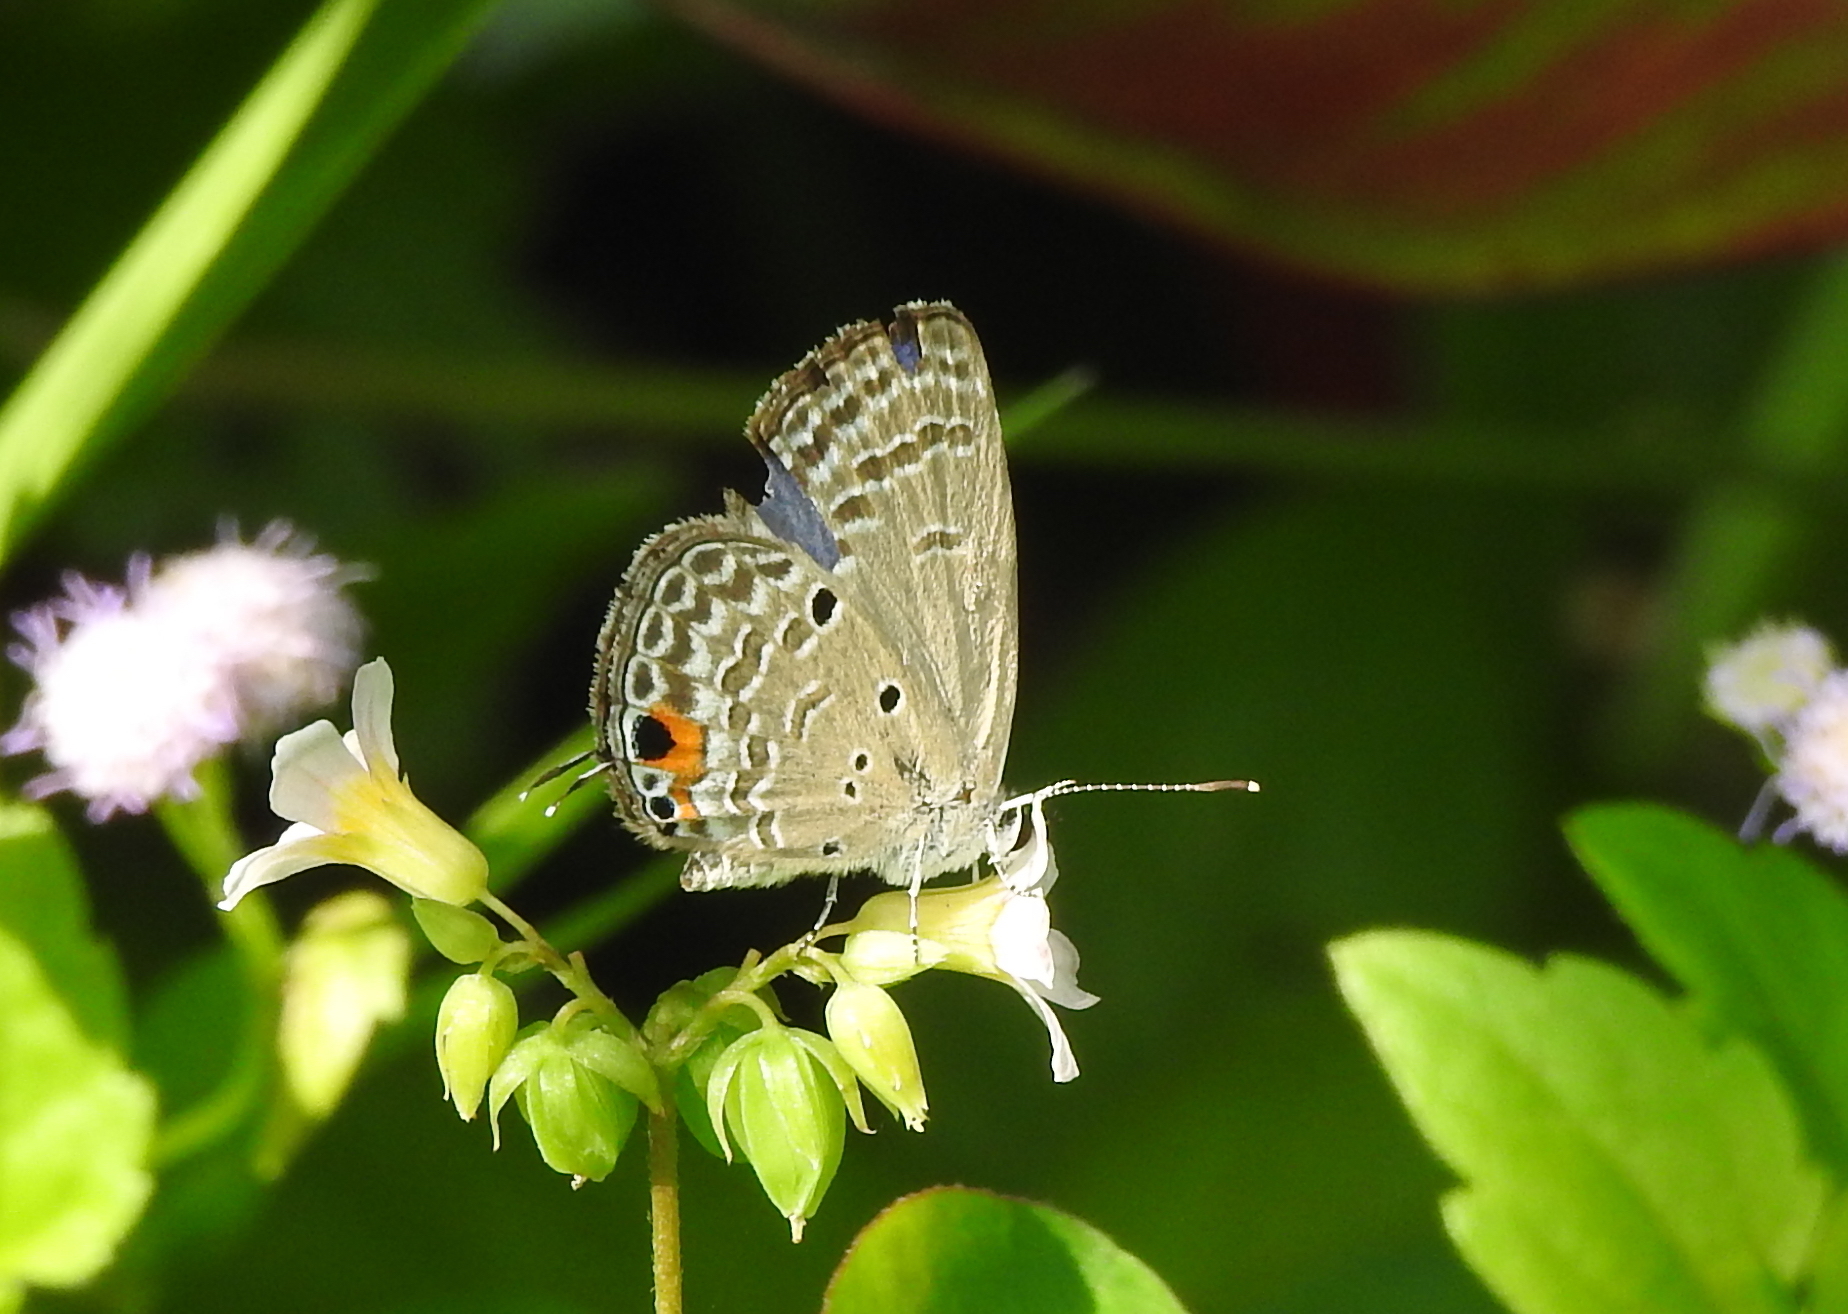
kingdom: Animalia
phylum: Arthropoda
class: Insecta
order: Lepidoptera
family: Lycaenidae
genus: Luthrodes
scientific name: Luthrodes pandava
